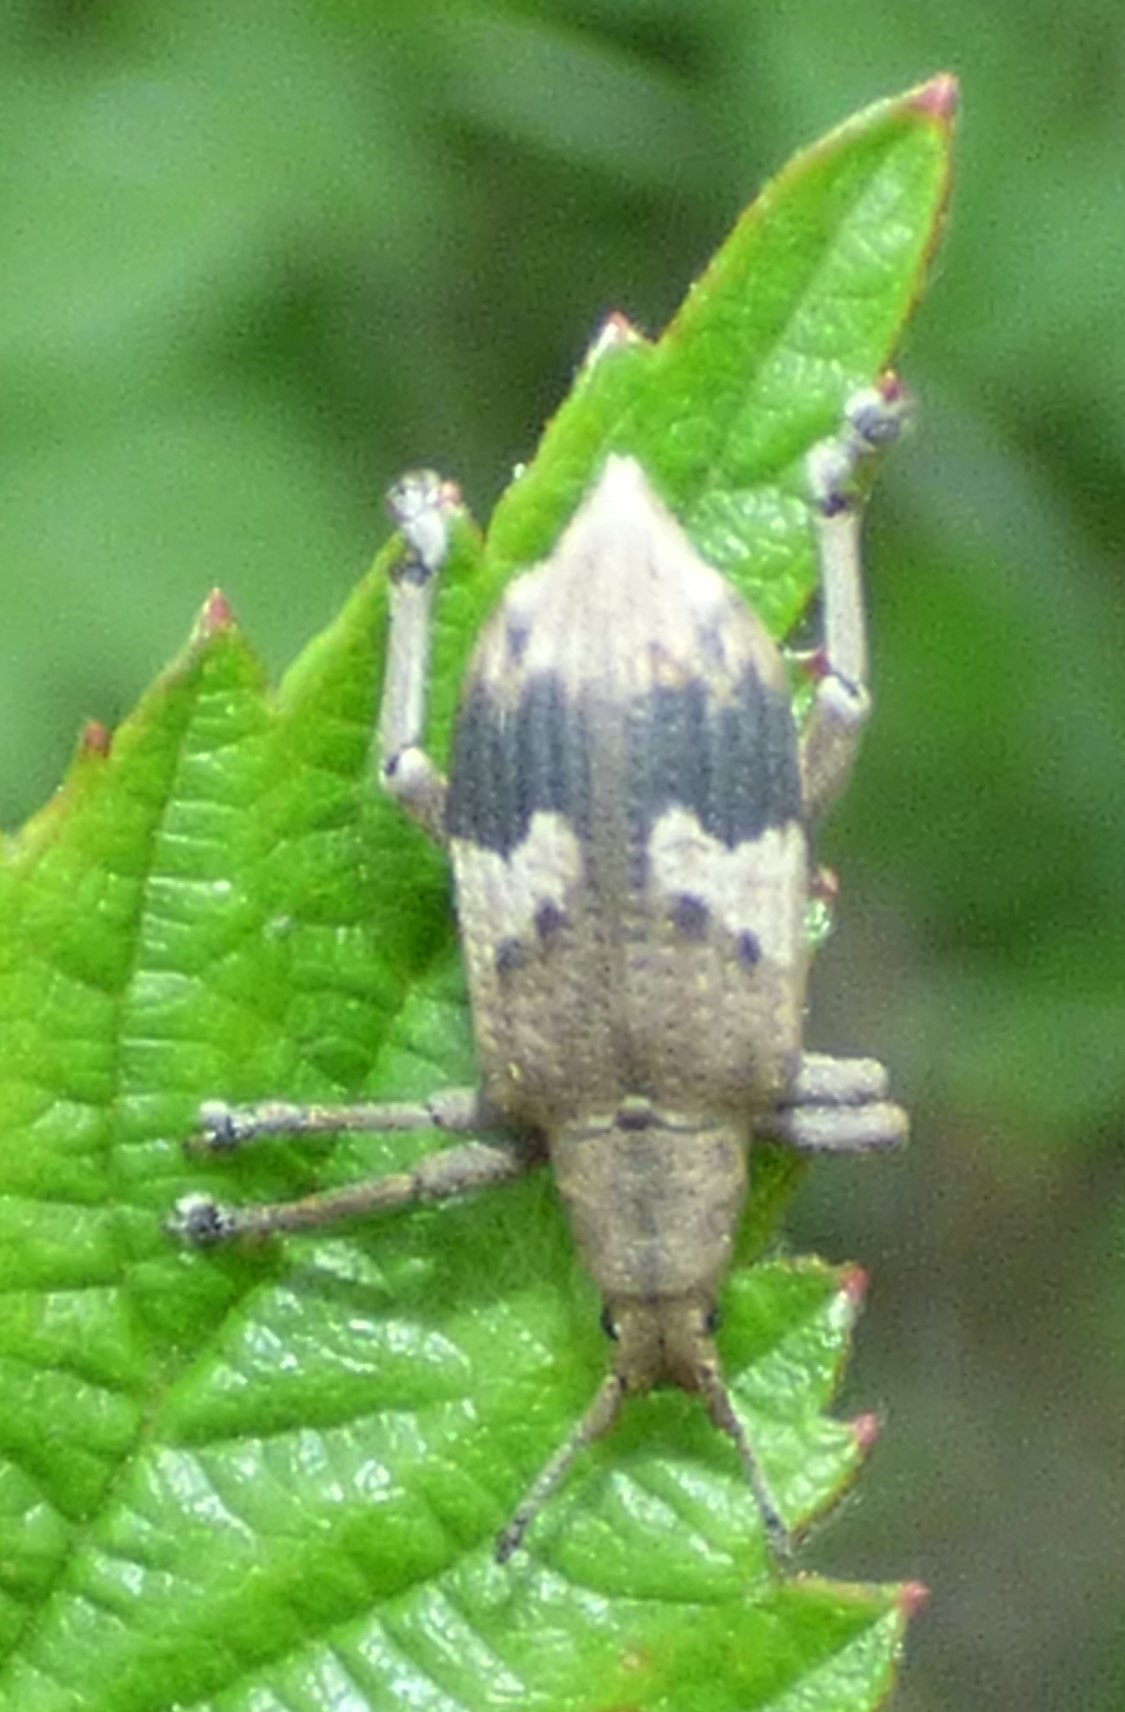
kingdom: Animalia
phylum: Arthropoda
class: Insecta
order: Coleoptera
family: Curculionidae
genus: Brachystylus
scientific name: Brachystylus
